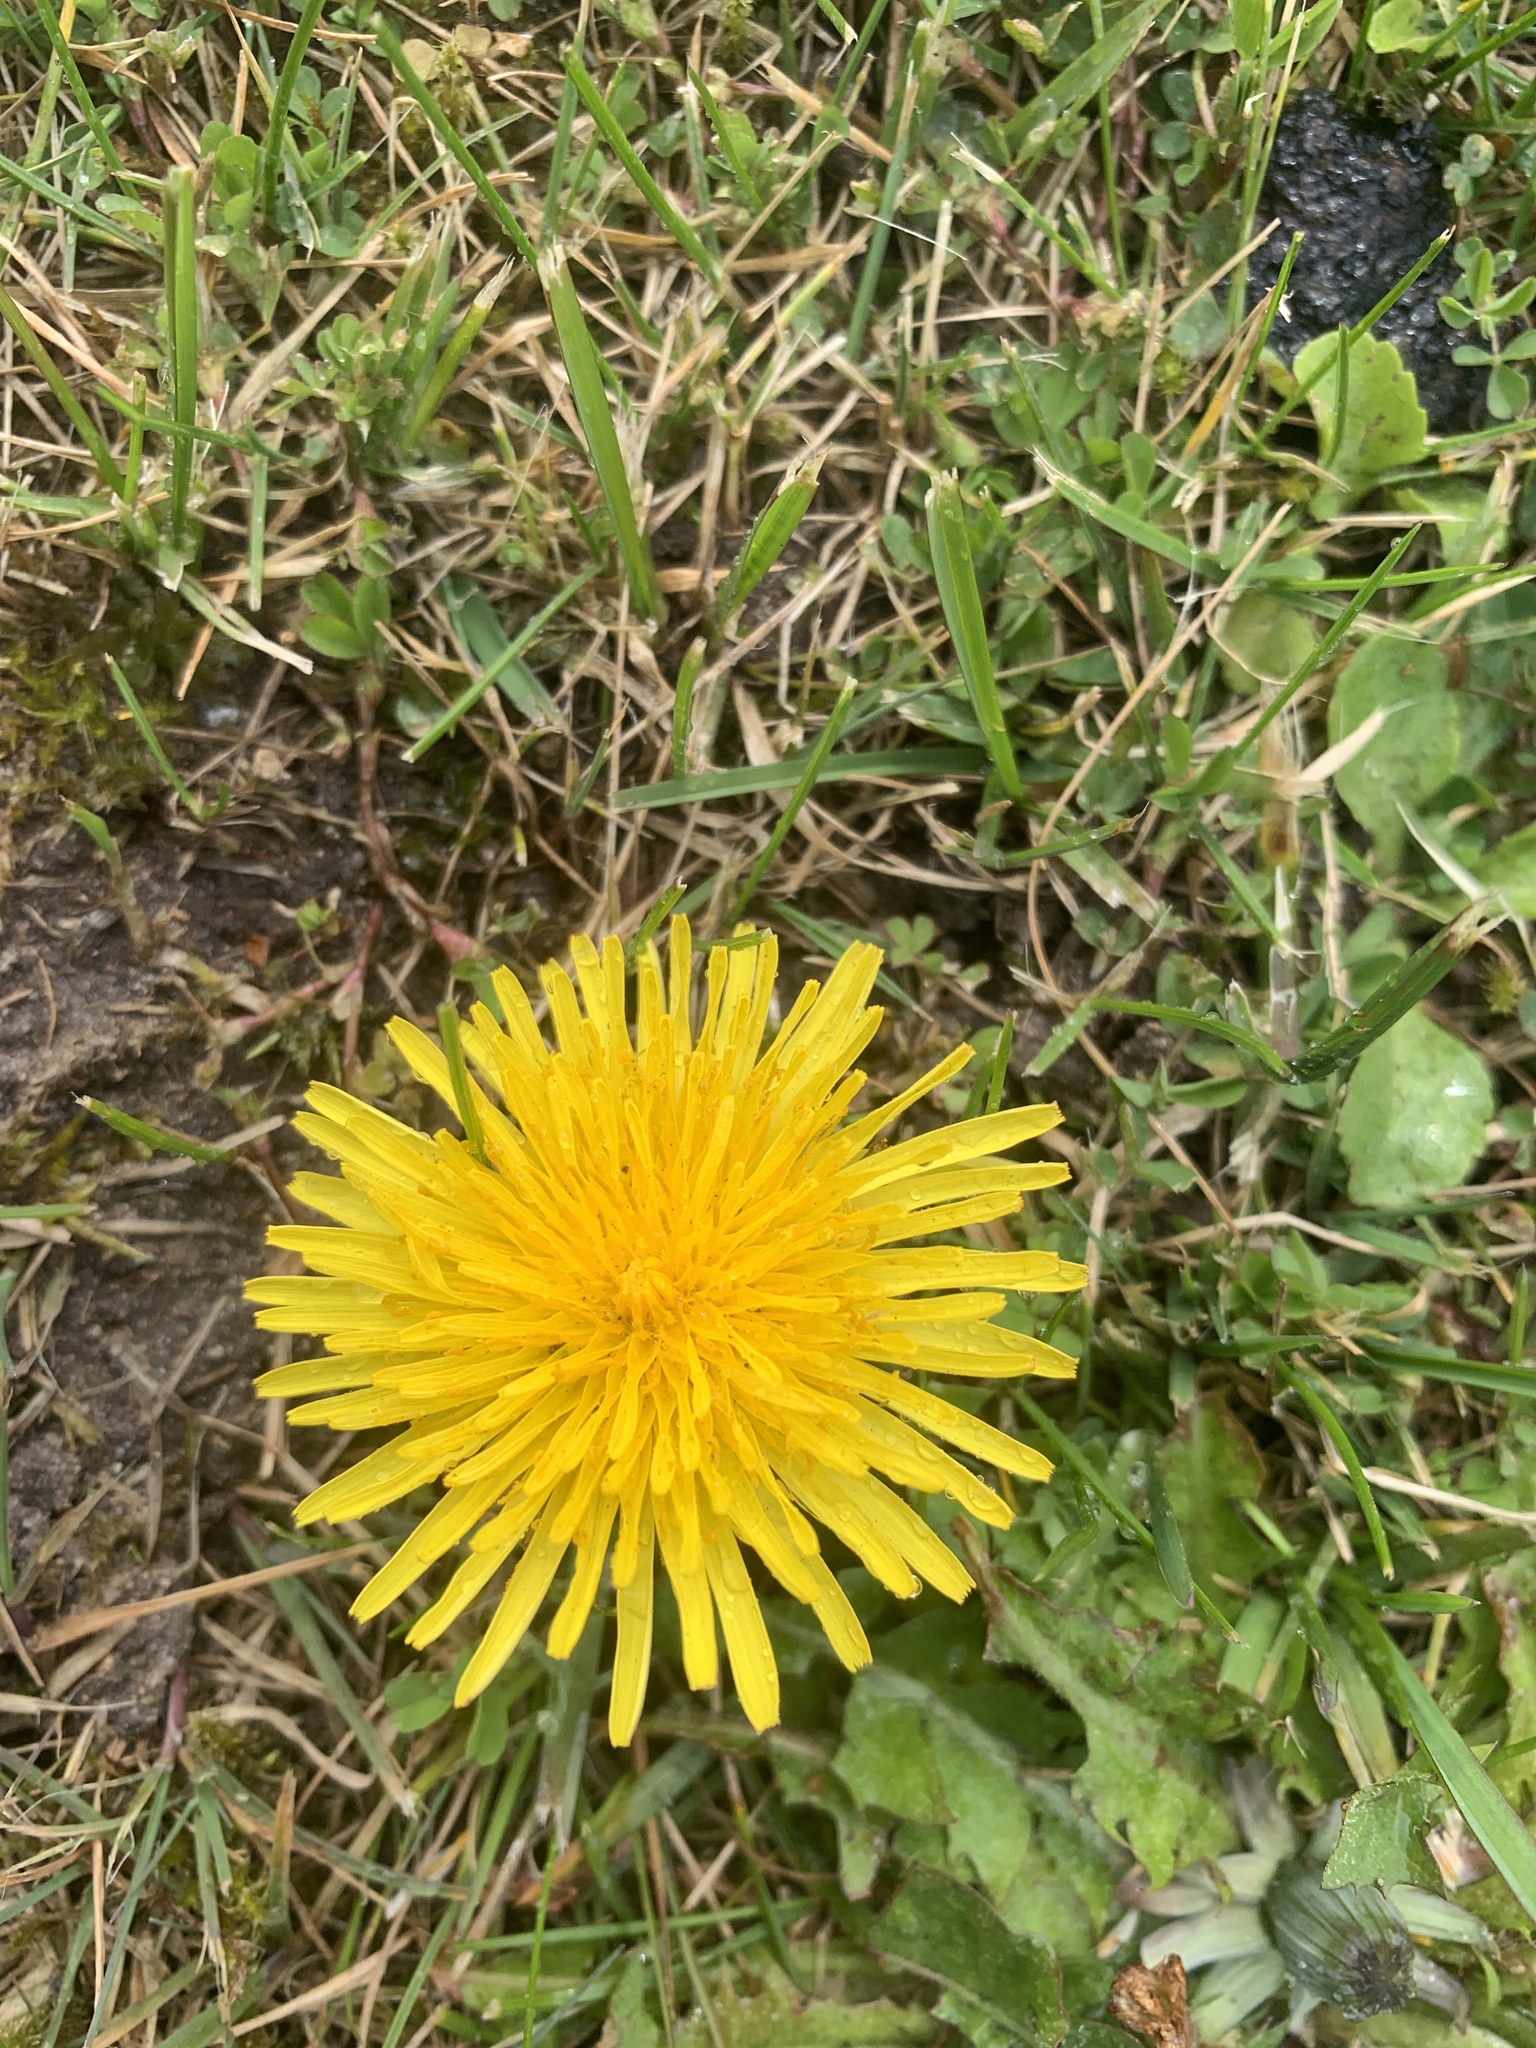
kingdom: Plantae
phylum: Tracheophyta
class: Magnoliopsida
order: Asterales
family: Asteraceae
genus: Taraxacum
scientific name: Taraxacum officinale
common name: Common dandelion
